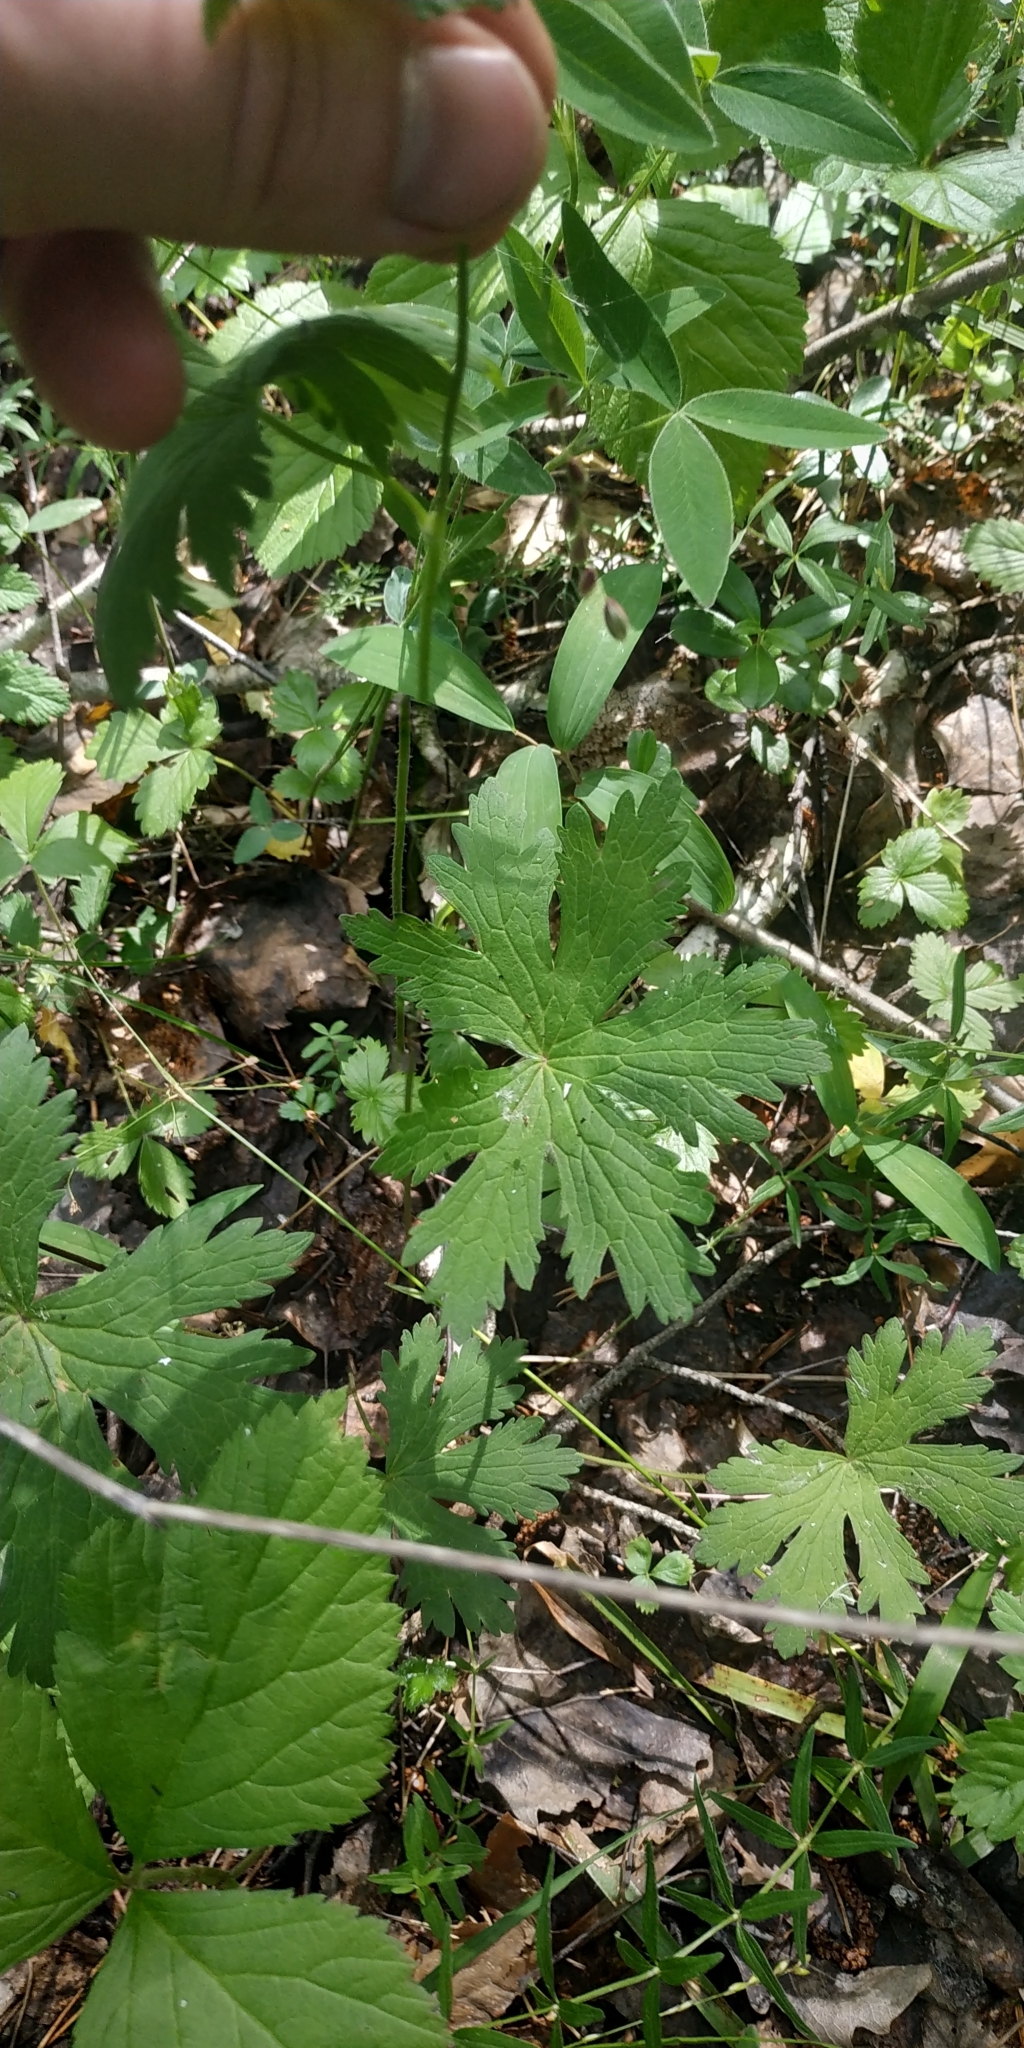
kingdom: Plantae
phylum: Tracheophyta
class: Magnoliopsida
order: Geraniales
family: Geraniaceae
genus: Geranium
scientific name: Geranium sylvaticum
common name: Wood crane's-bill
